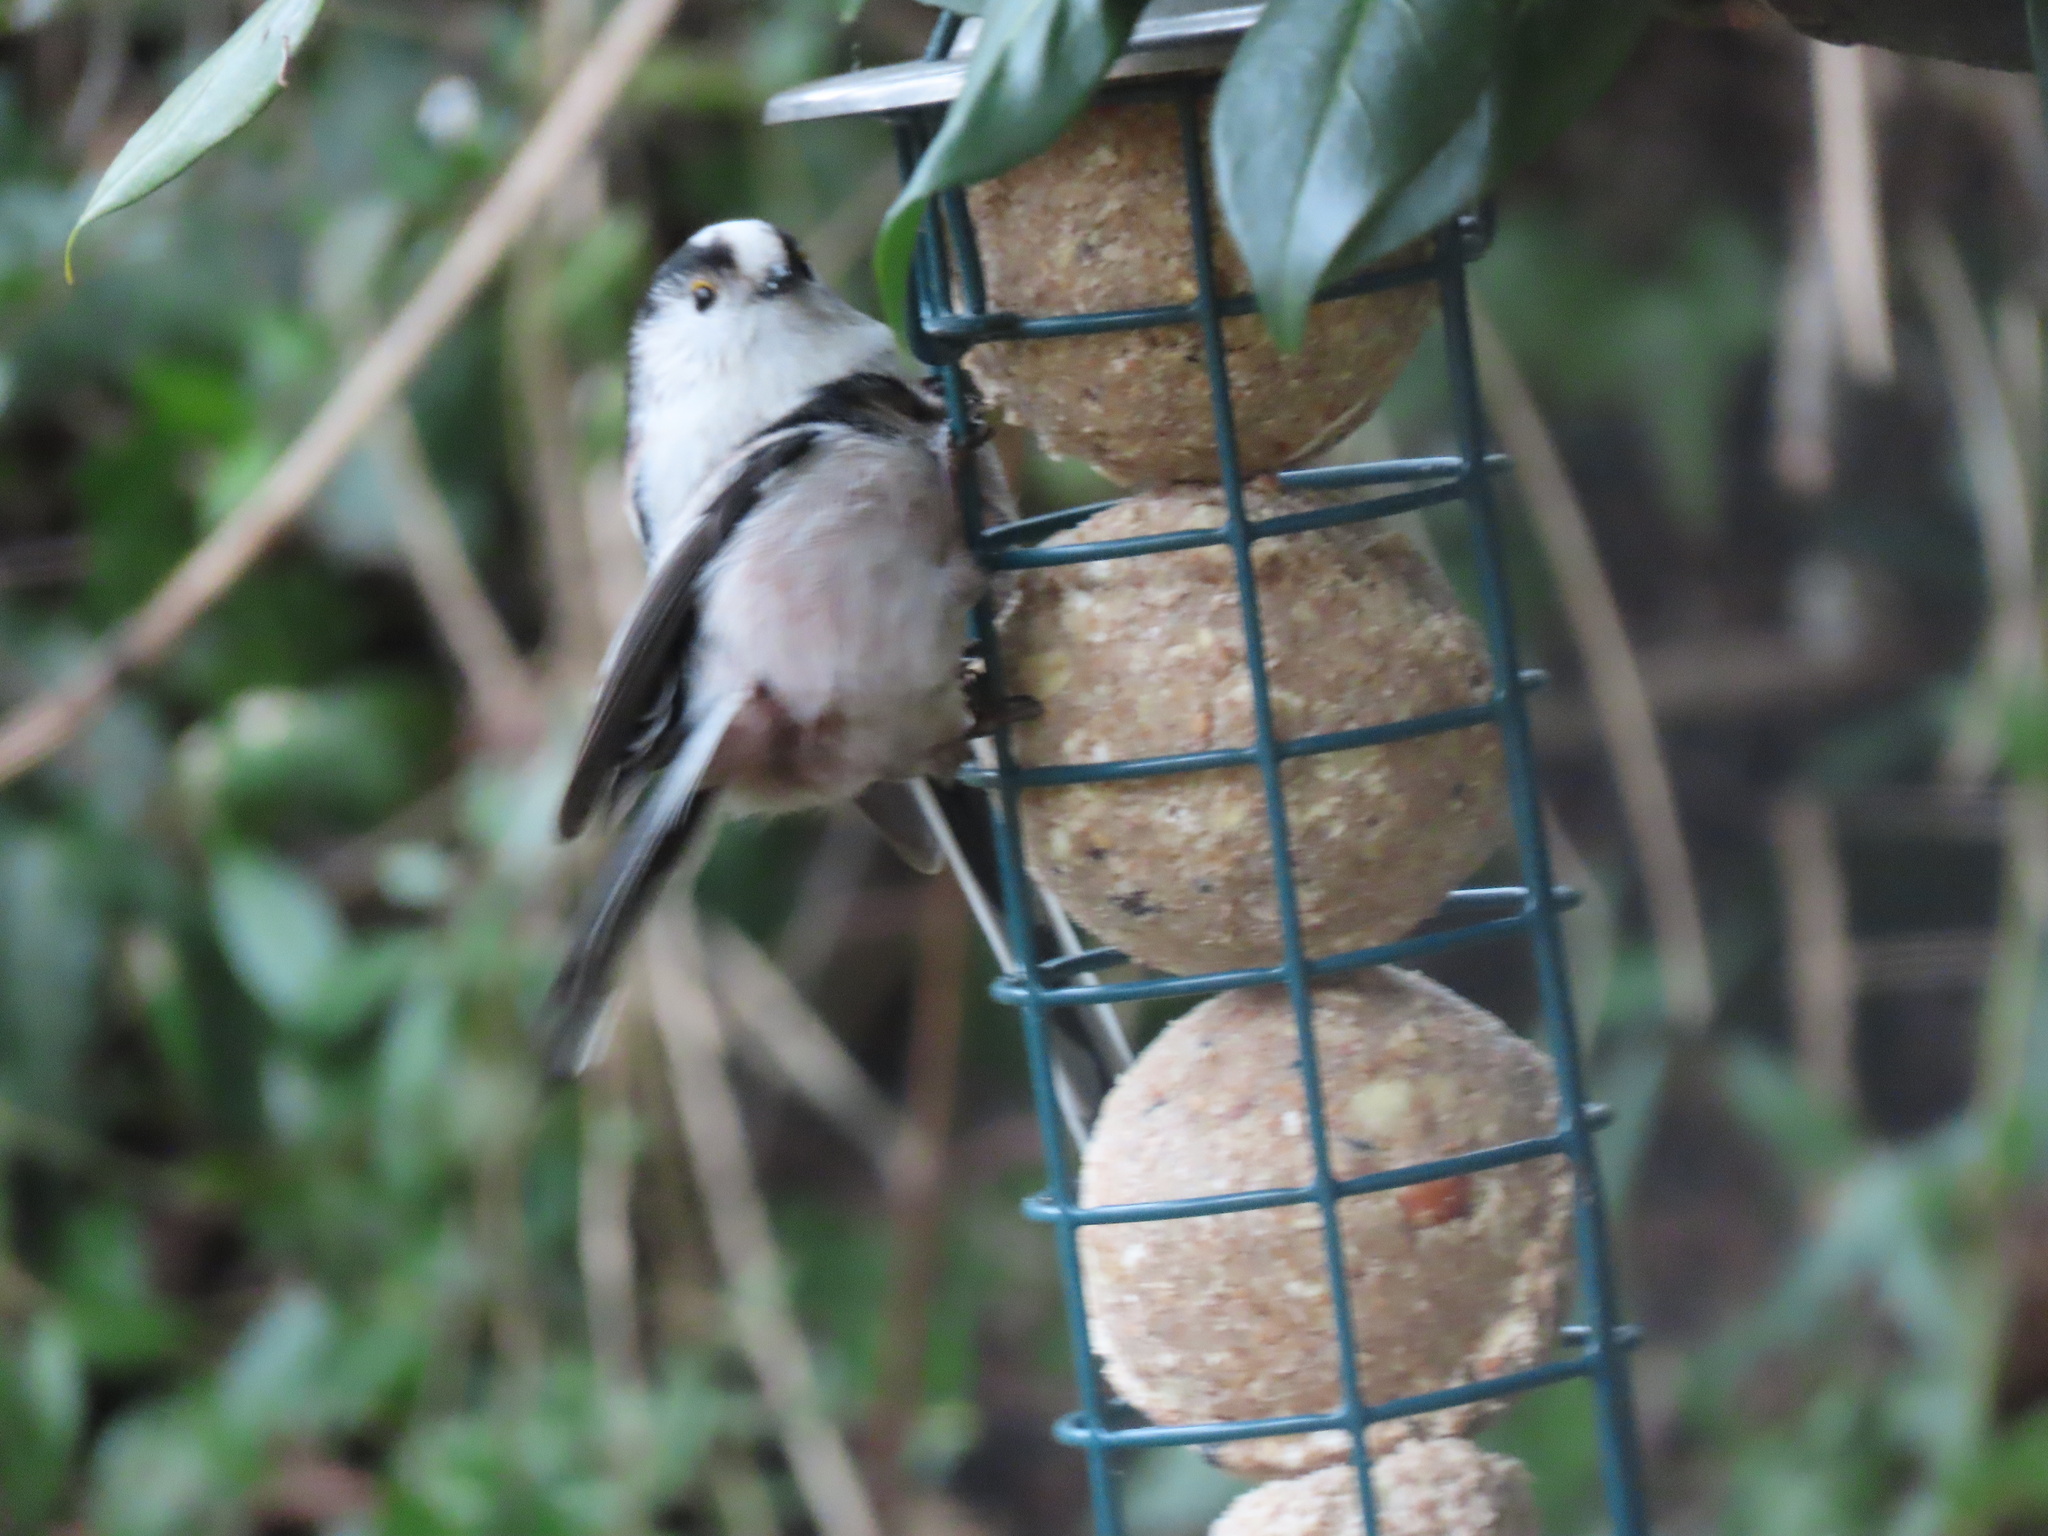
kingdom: Animalia
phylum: Chordata
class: Aves
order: Passeriformes
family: Aegithalidae
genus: Aegithalos
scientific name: Aegithalos caudatus
